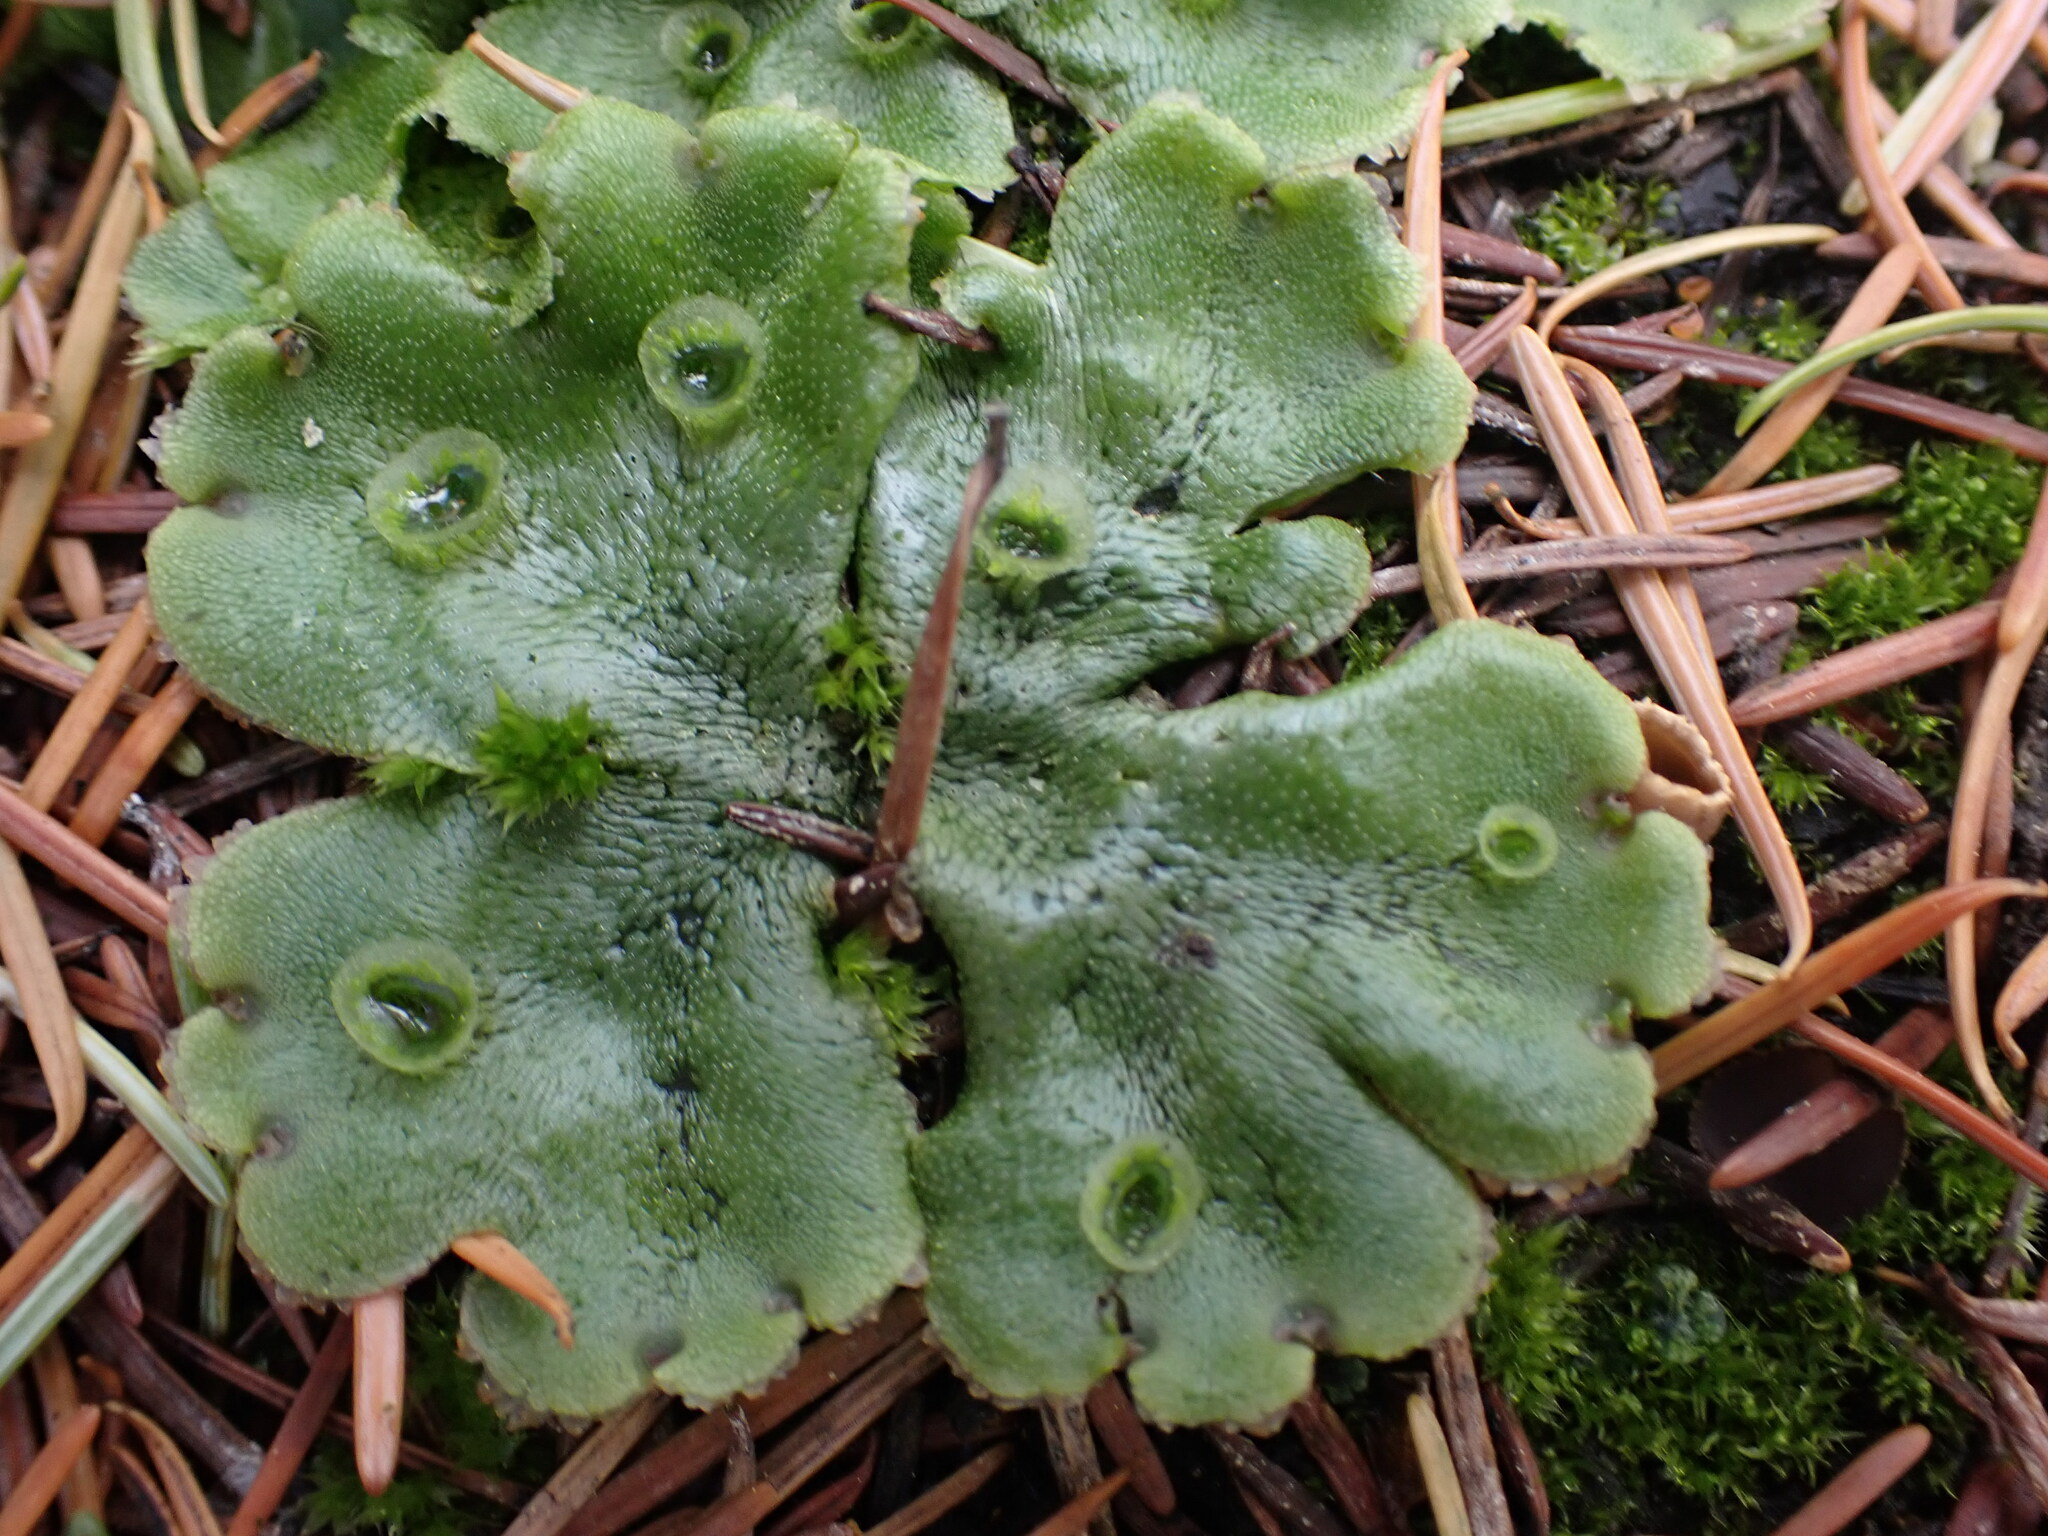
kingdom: Plantae
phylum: Marchantiophyta
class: Marchantiopsida
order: Marchantiales
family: Marchantiaceae
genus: Marchantia
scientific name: Marchantia polymorpha
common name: Common liverwort
